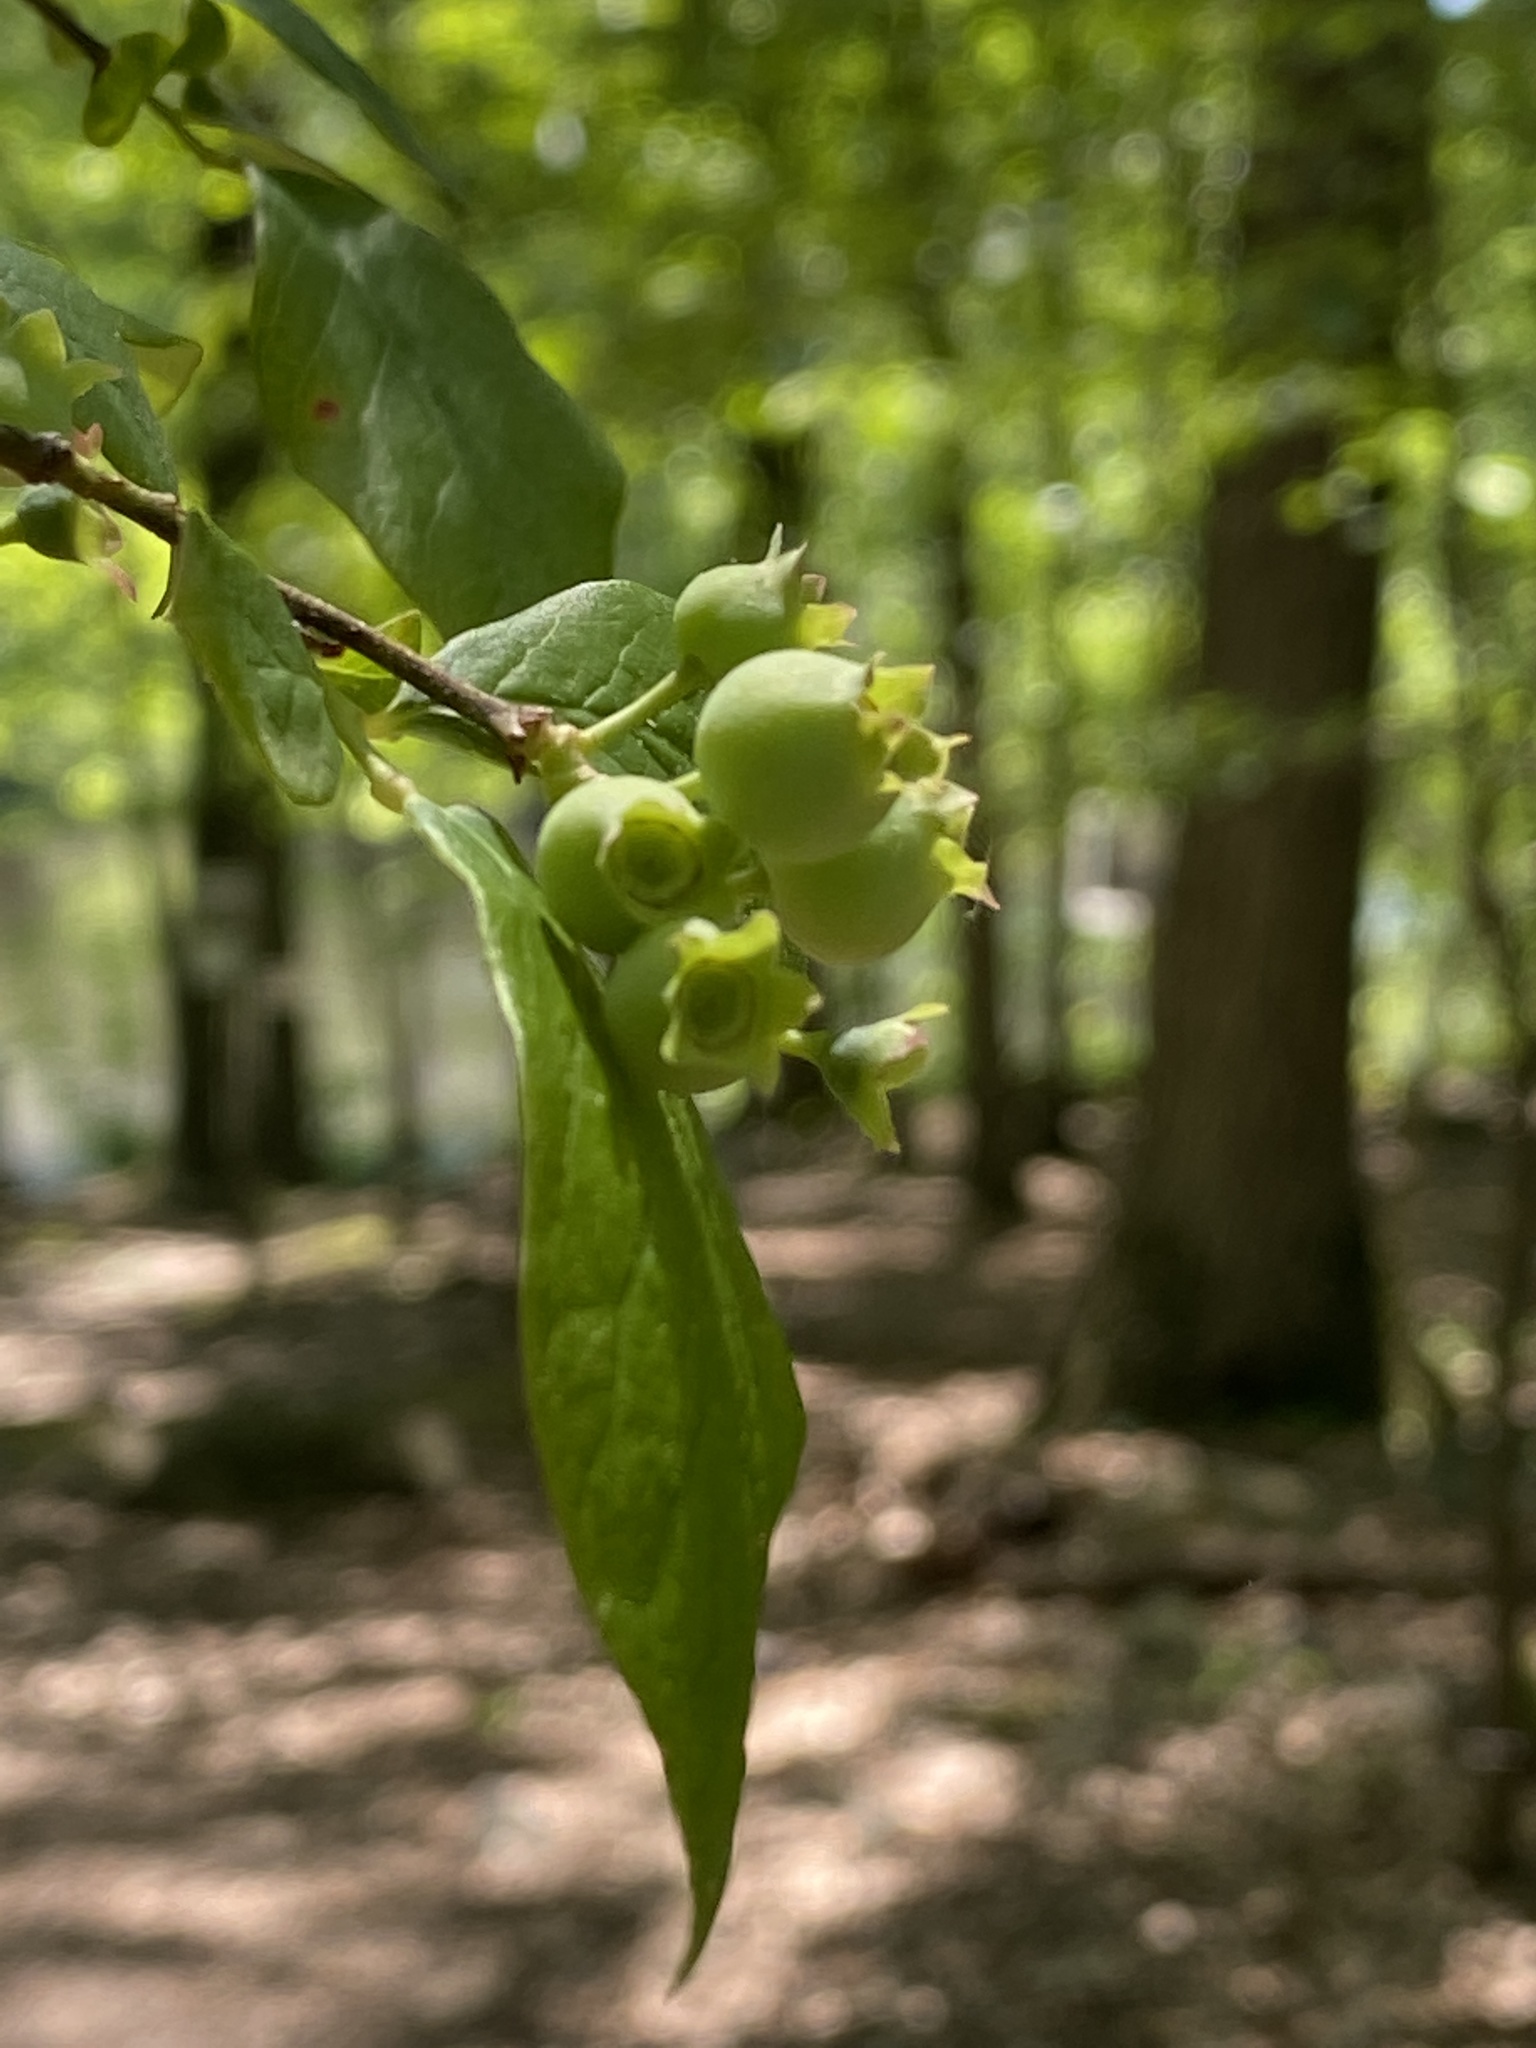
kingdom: Plantae
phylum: Tracheophyta
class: Magnoliopsida
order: Ericales
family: Ericaceae
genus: Vaccinium
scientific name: Vaccinium corymbosum
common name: Blueberry
